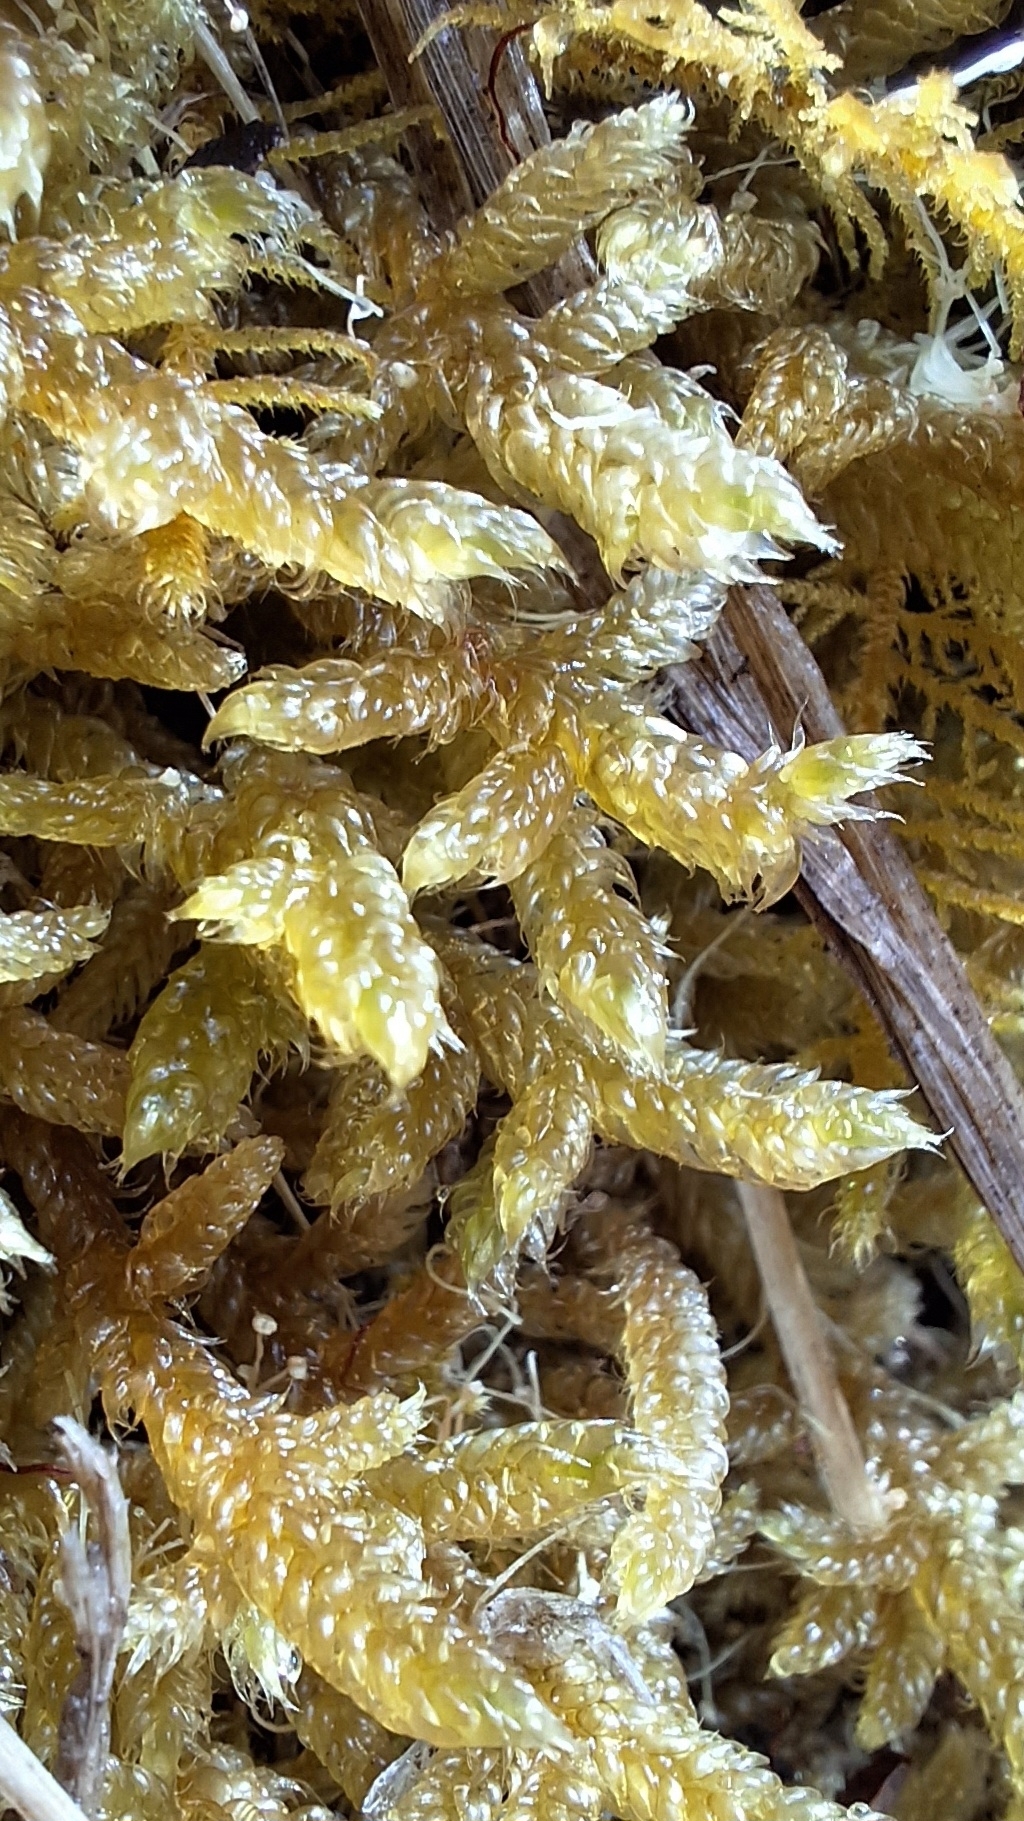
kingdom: Plantae
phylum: Bryophyta
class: Bryopsida
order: Hypnales
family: Hypnaceae
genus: Hypnum
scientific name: Hypnum cupressiforme
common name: Cypress-leaved plait-moss
